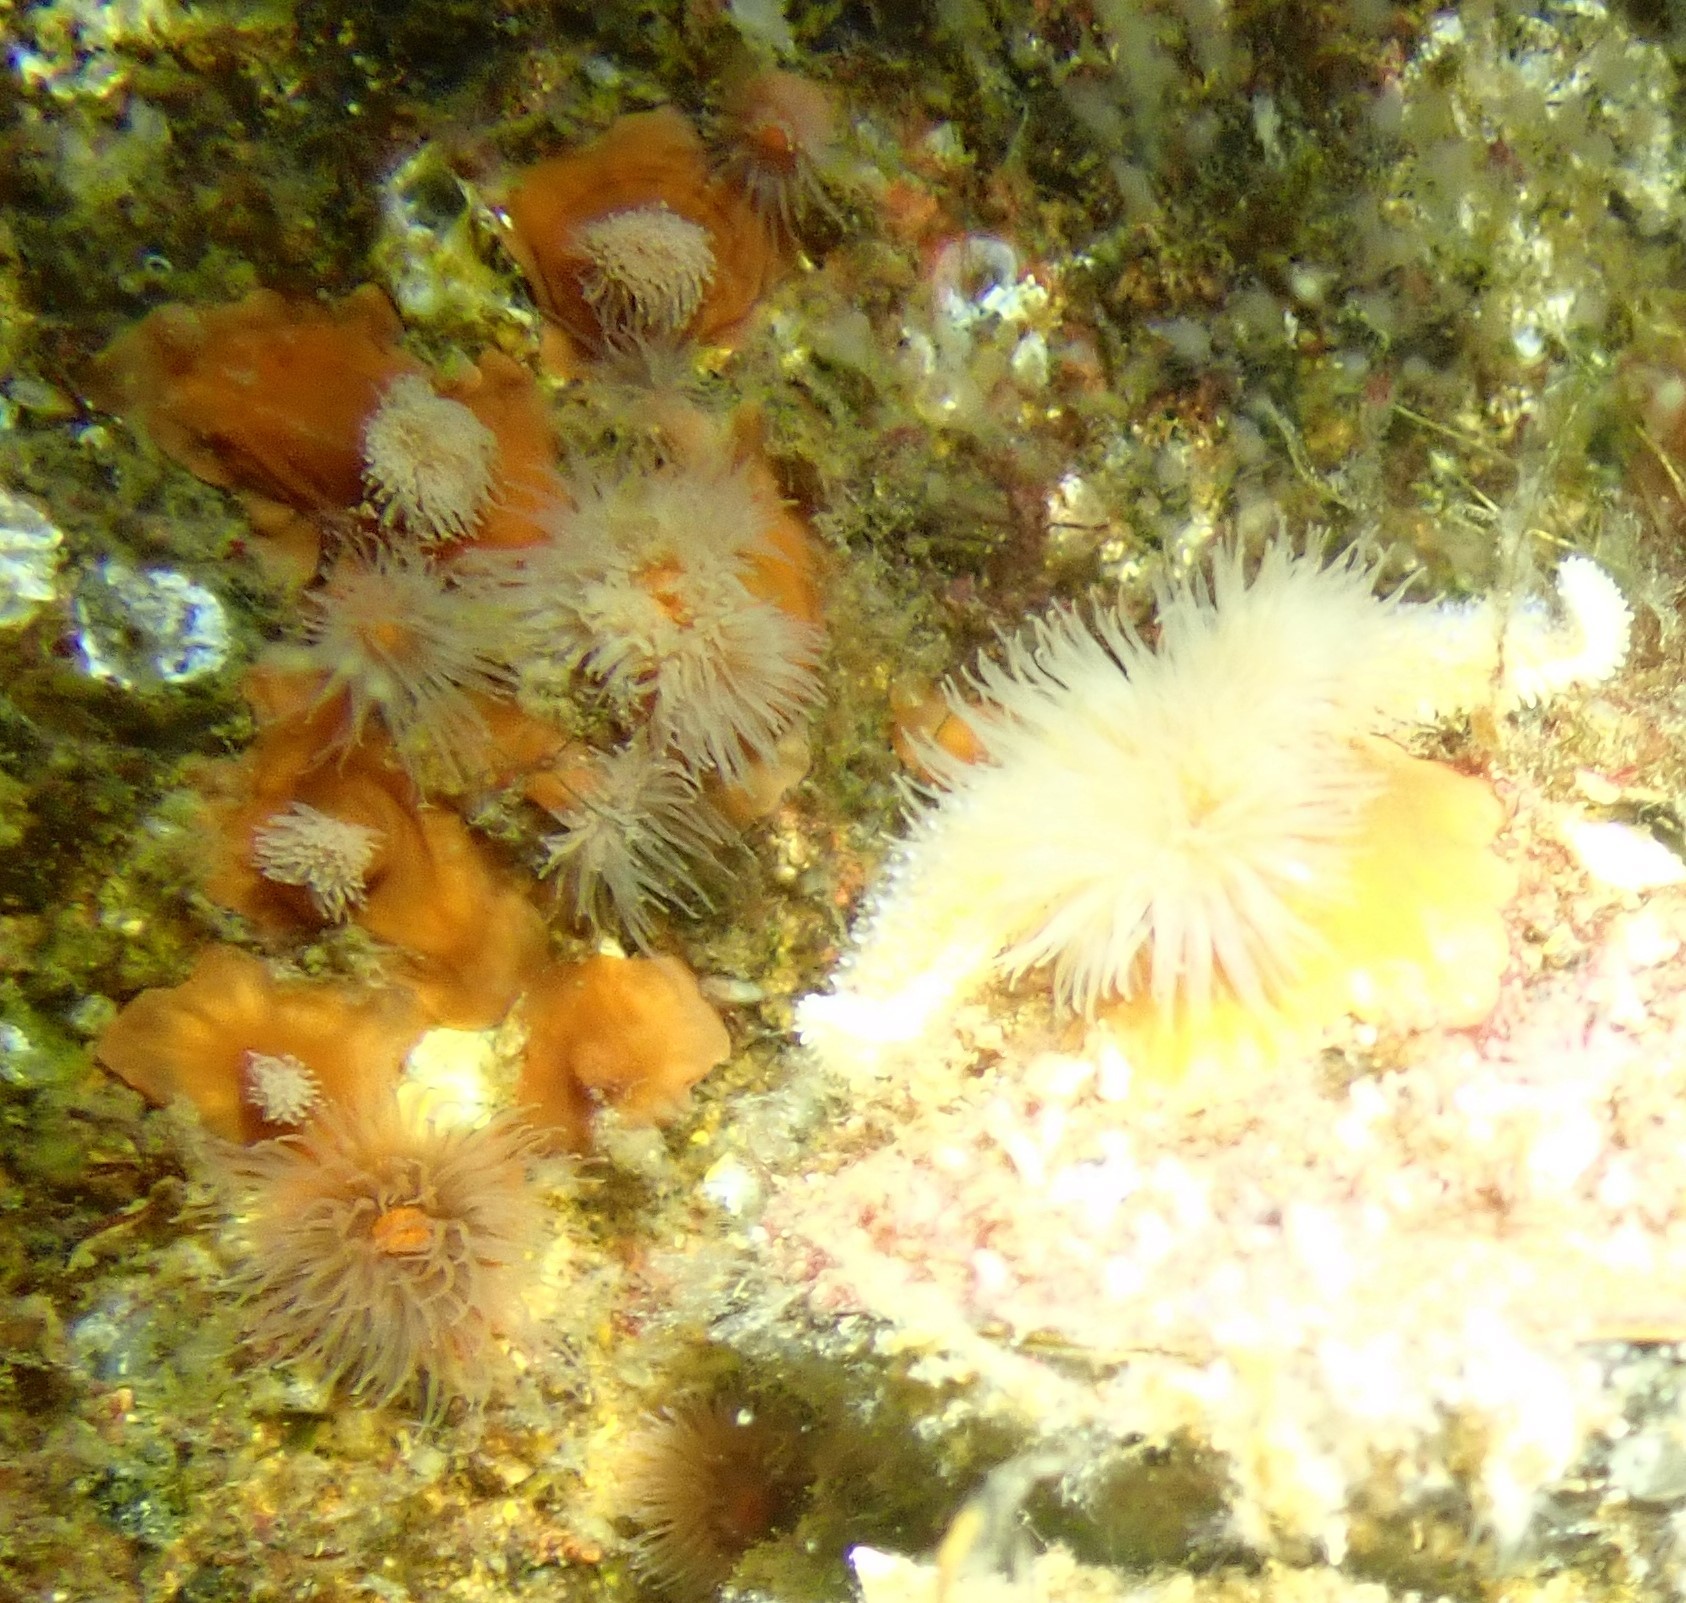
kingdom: Animalia
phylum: Cnidaria
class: Anthozoa
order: Actiniaria
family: Metridiidae
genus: Metridium
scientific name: Metridium senile
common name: Clonal plumose anemone
